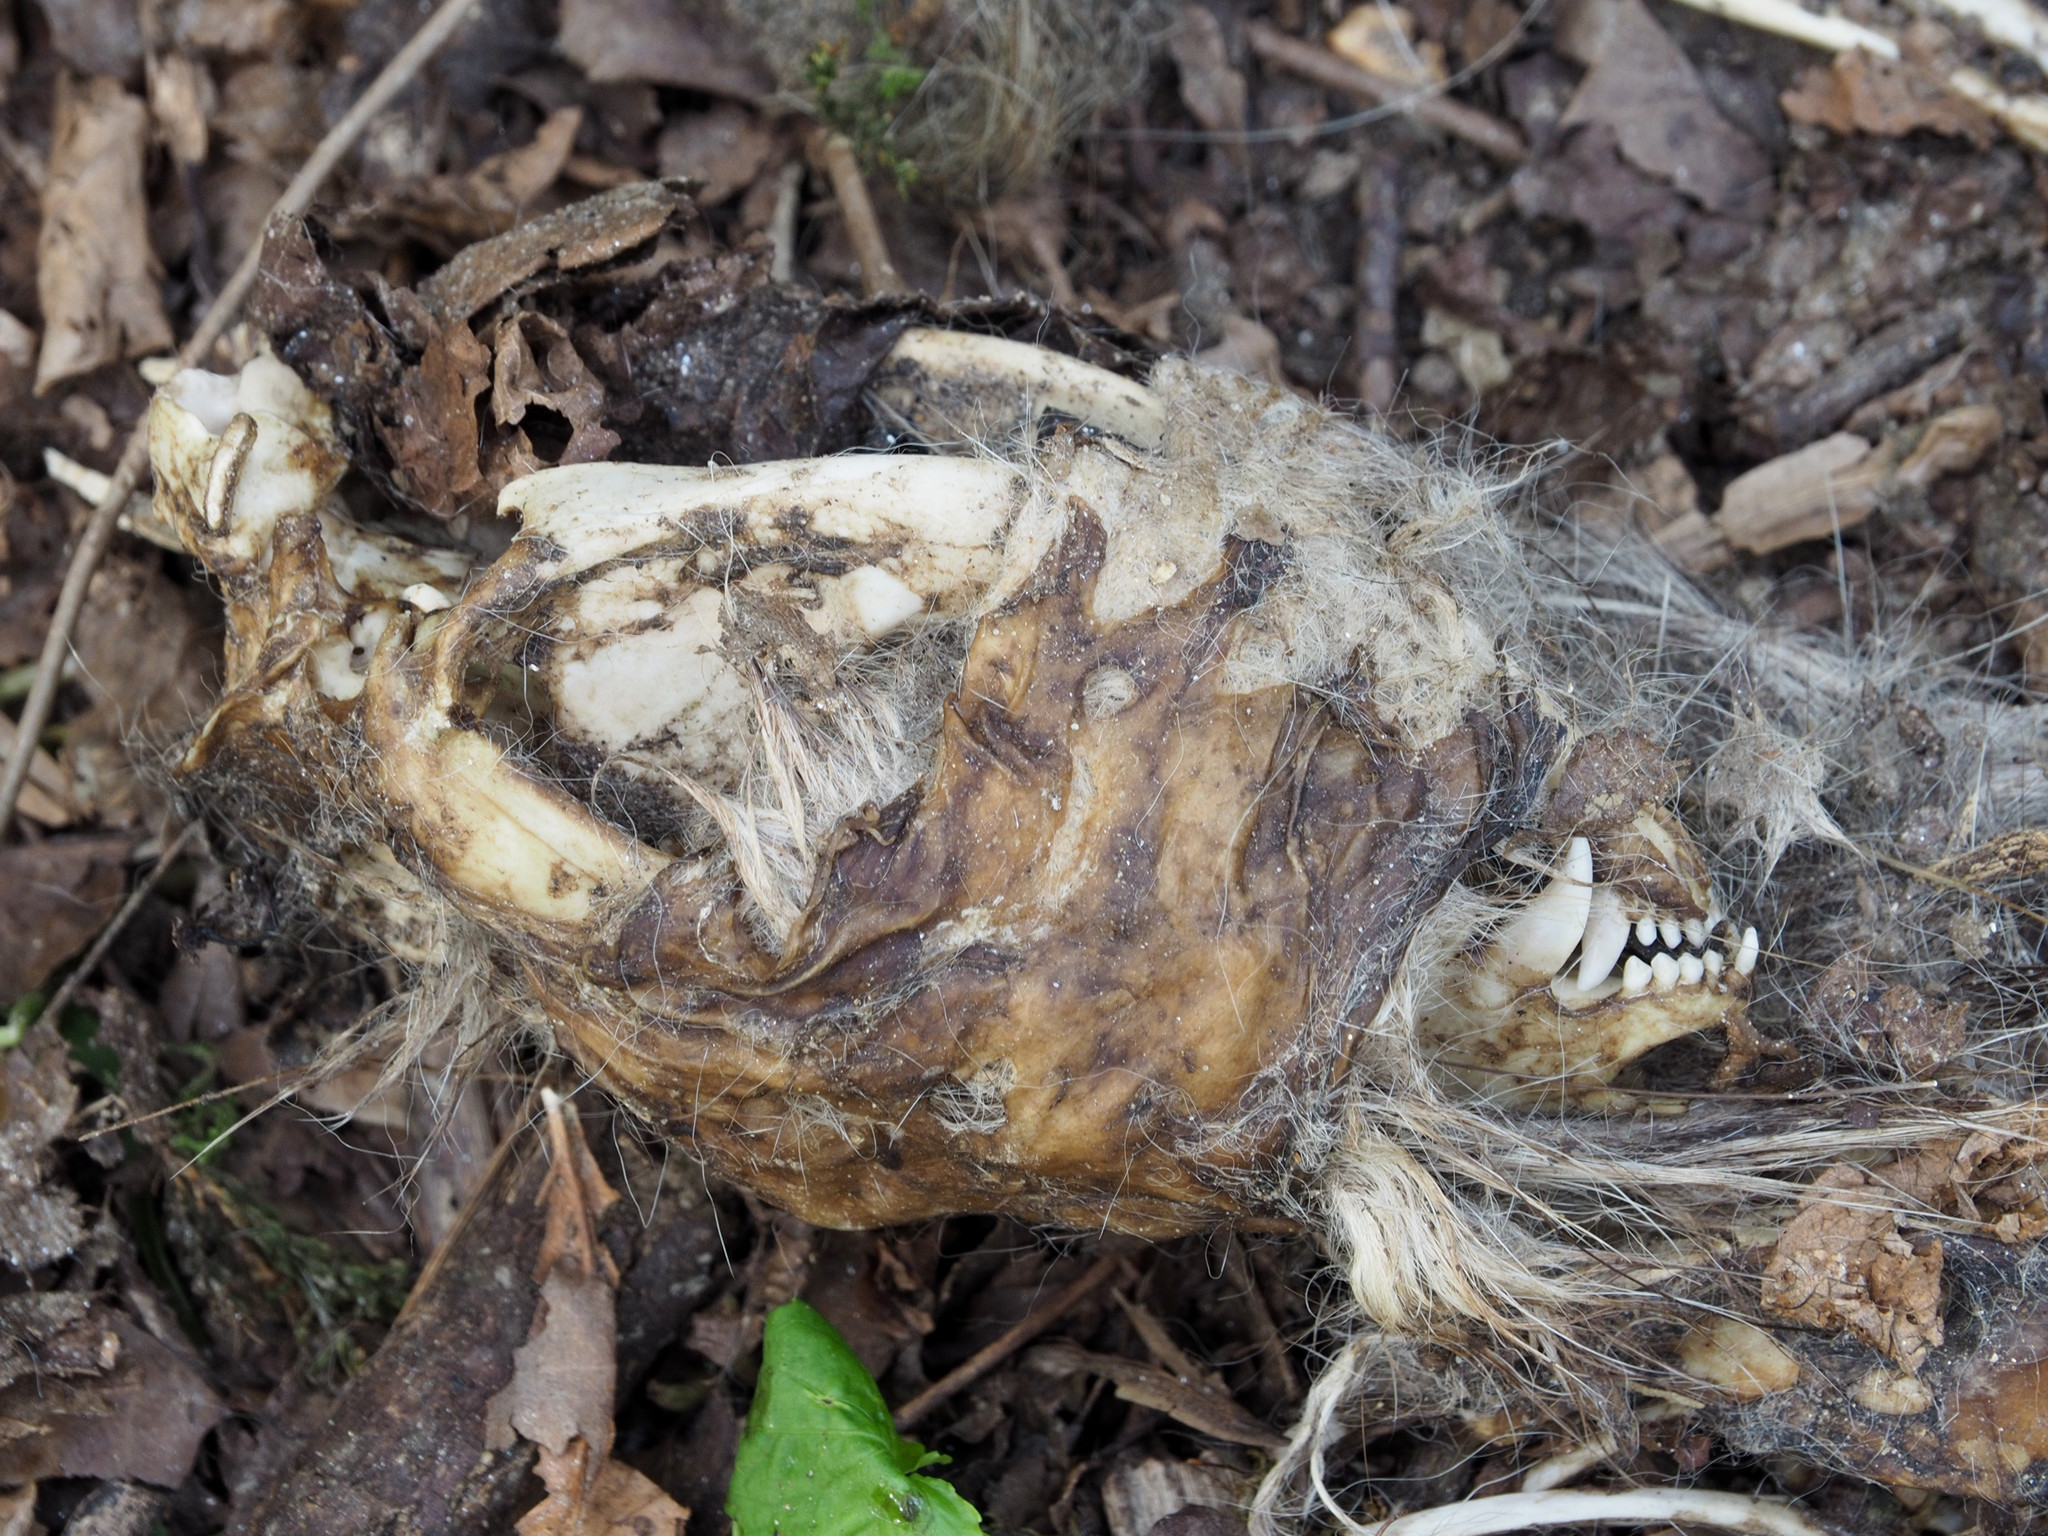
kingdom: Animalia
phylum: Chordata
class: Mammalia
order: Didelphimorphia
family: Didelphidae
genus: Didelphis
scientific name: Didelphis virginiana
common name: Virginia opossum
